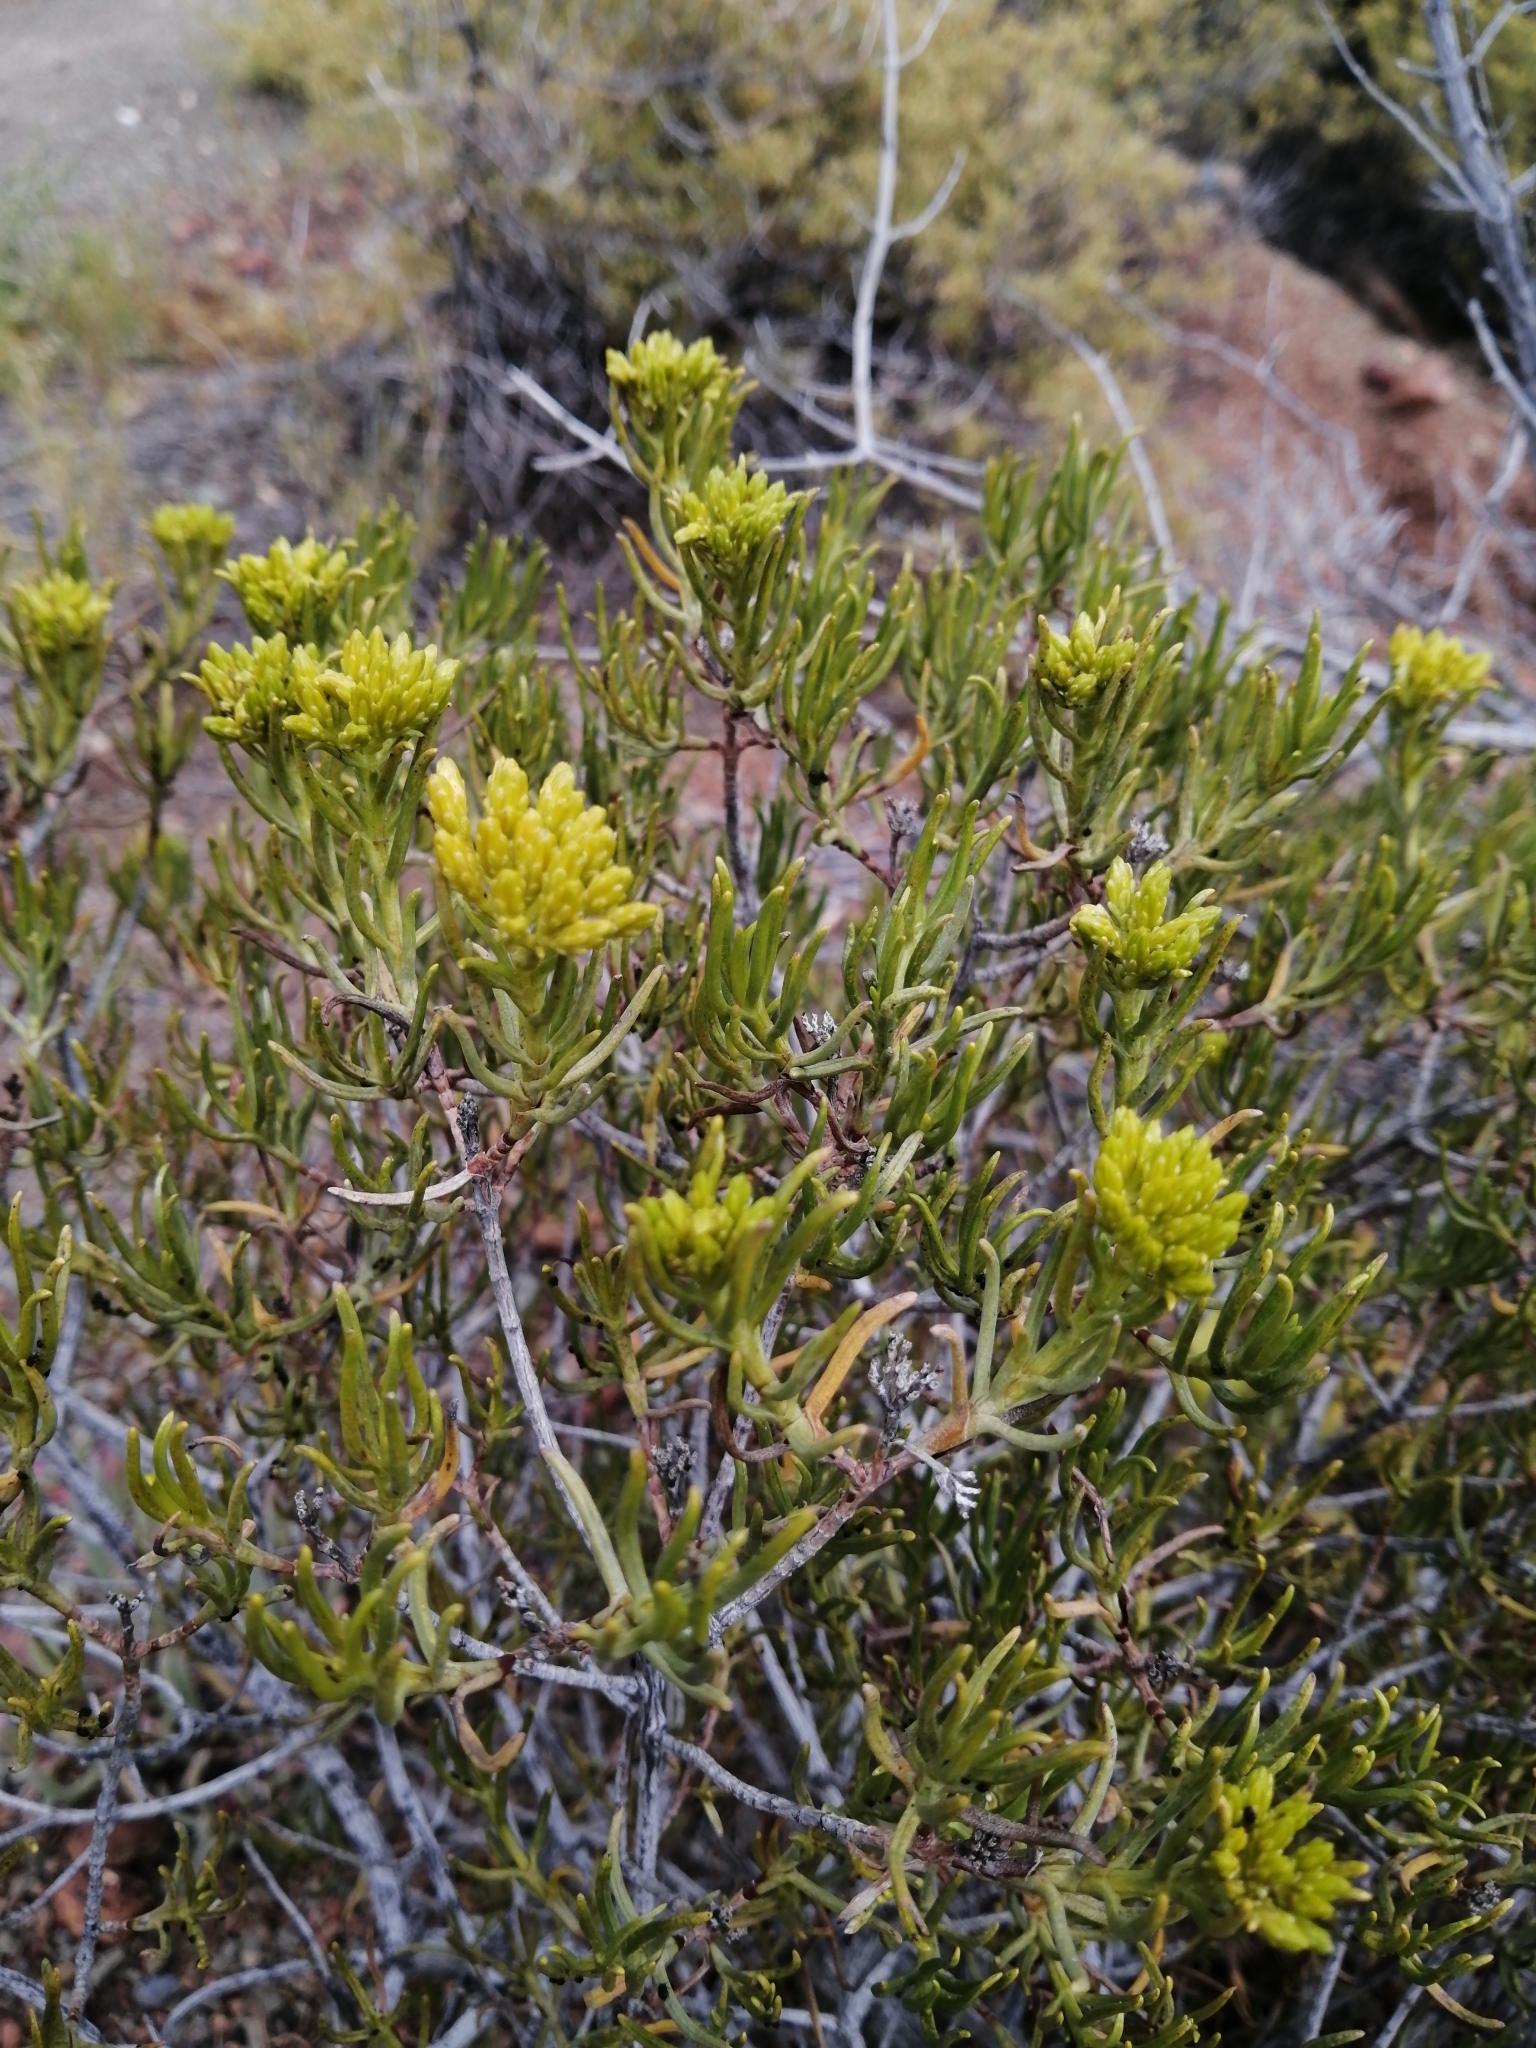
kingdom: Plantae
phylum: Tracheophyta
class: Magnoliopsida
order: Asterales
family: Asteraceae
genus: Pteronia
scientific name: Pteronia paniculata
